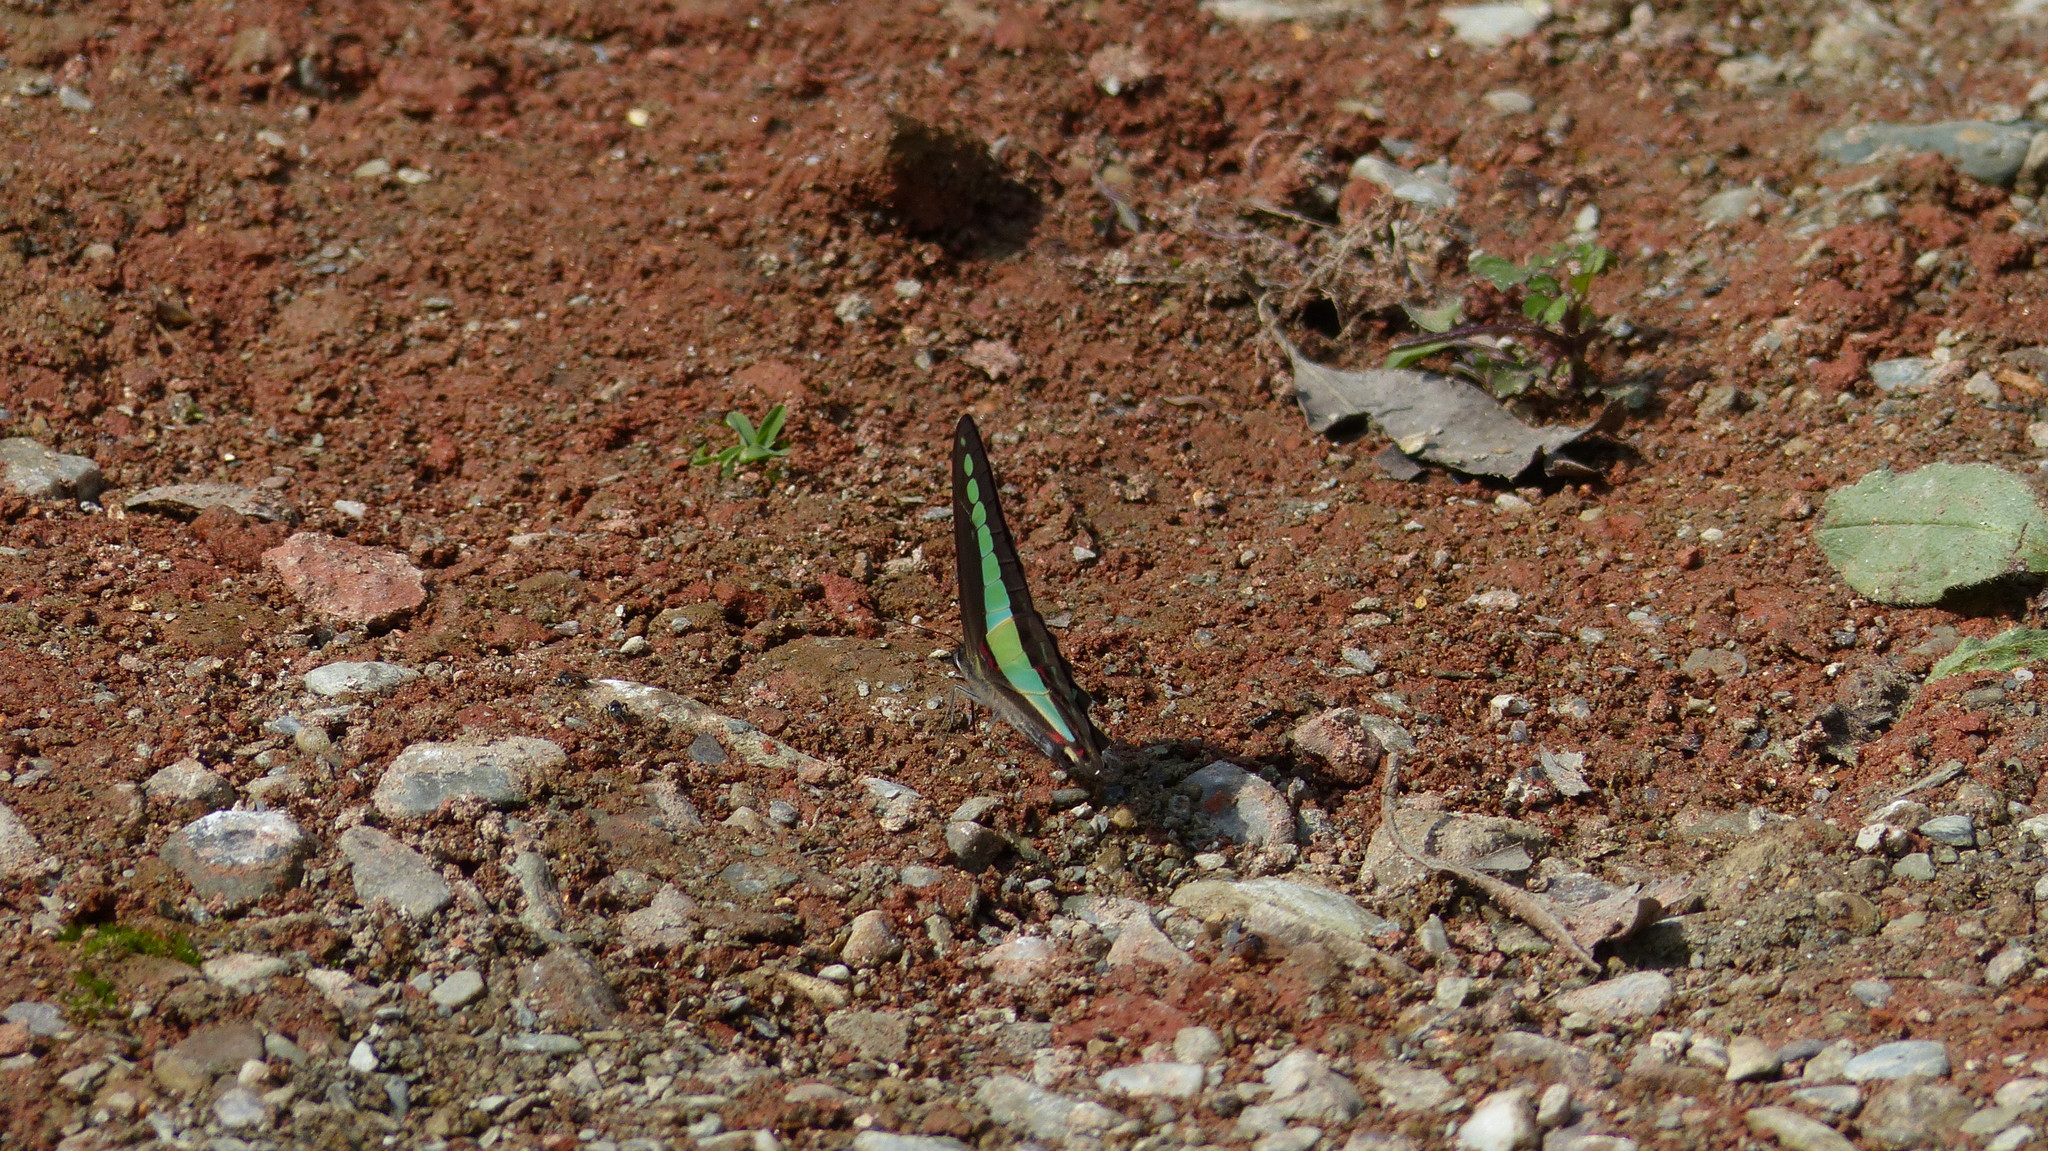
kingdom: Fungi
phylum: Ascomycota
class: Sordariomycetes
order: Microascales
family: Microascaceae
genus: Graphium
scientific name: Graphium sarpedon
